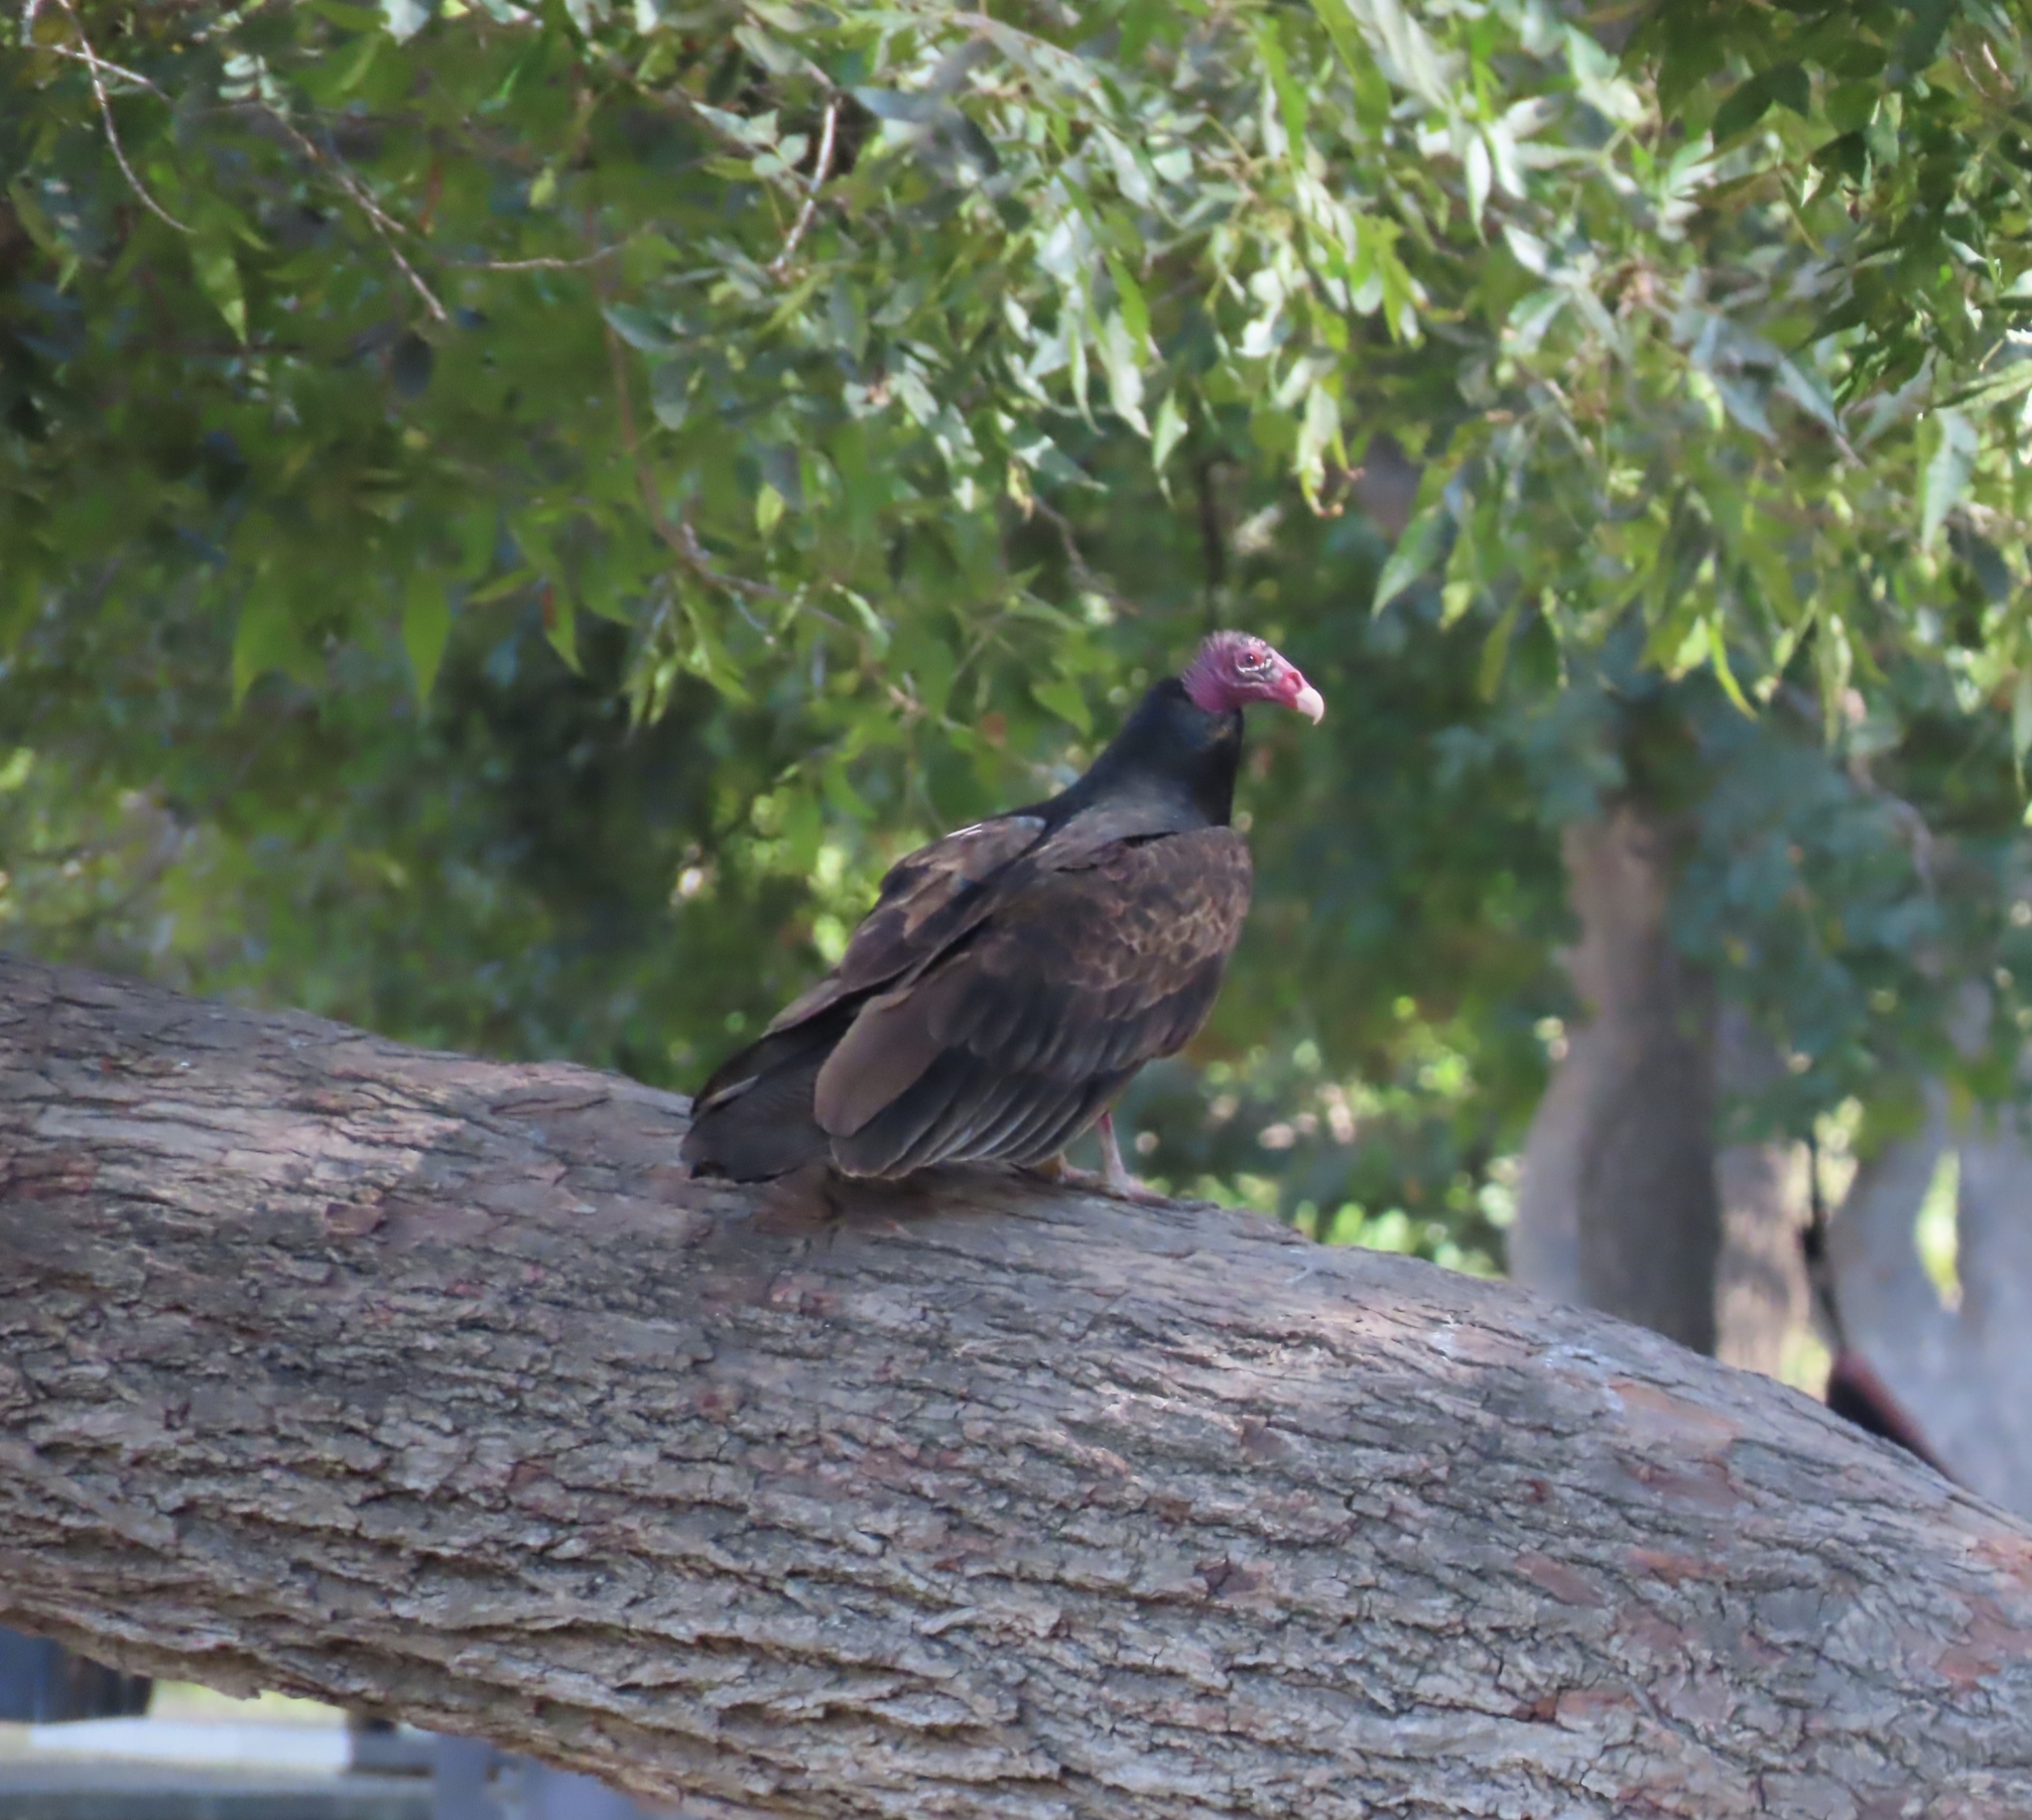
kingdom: Animalia
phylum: Chordata
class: Aves
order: Accipitriformes
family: Cathartidae
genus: Cathartes
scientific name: Cathartes aura
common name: Turkey vulture
